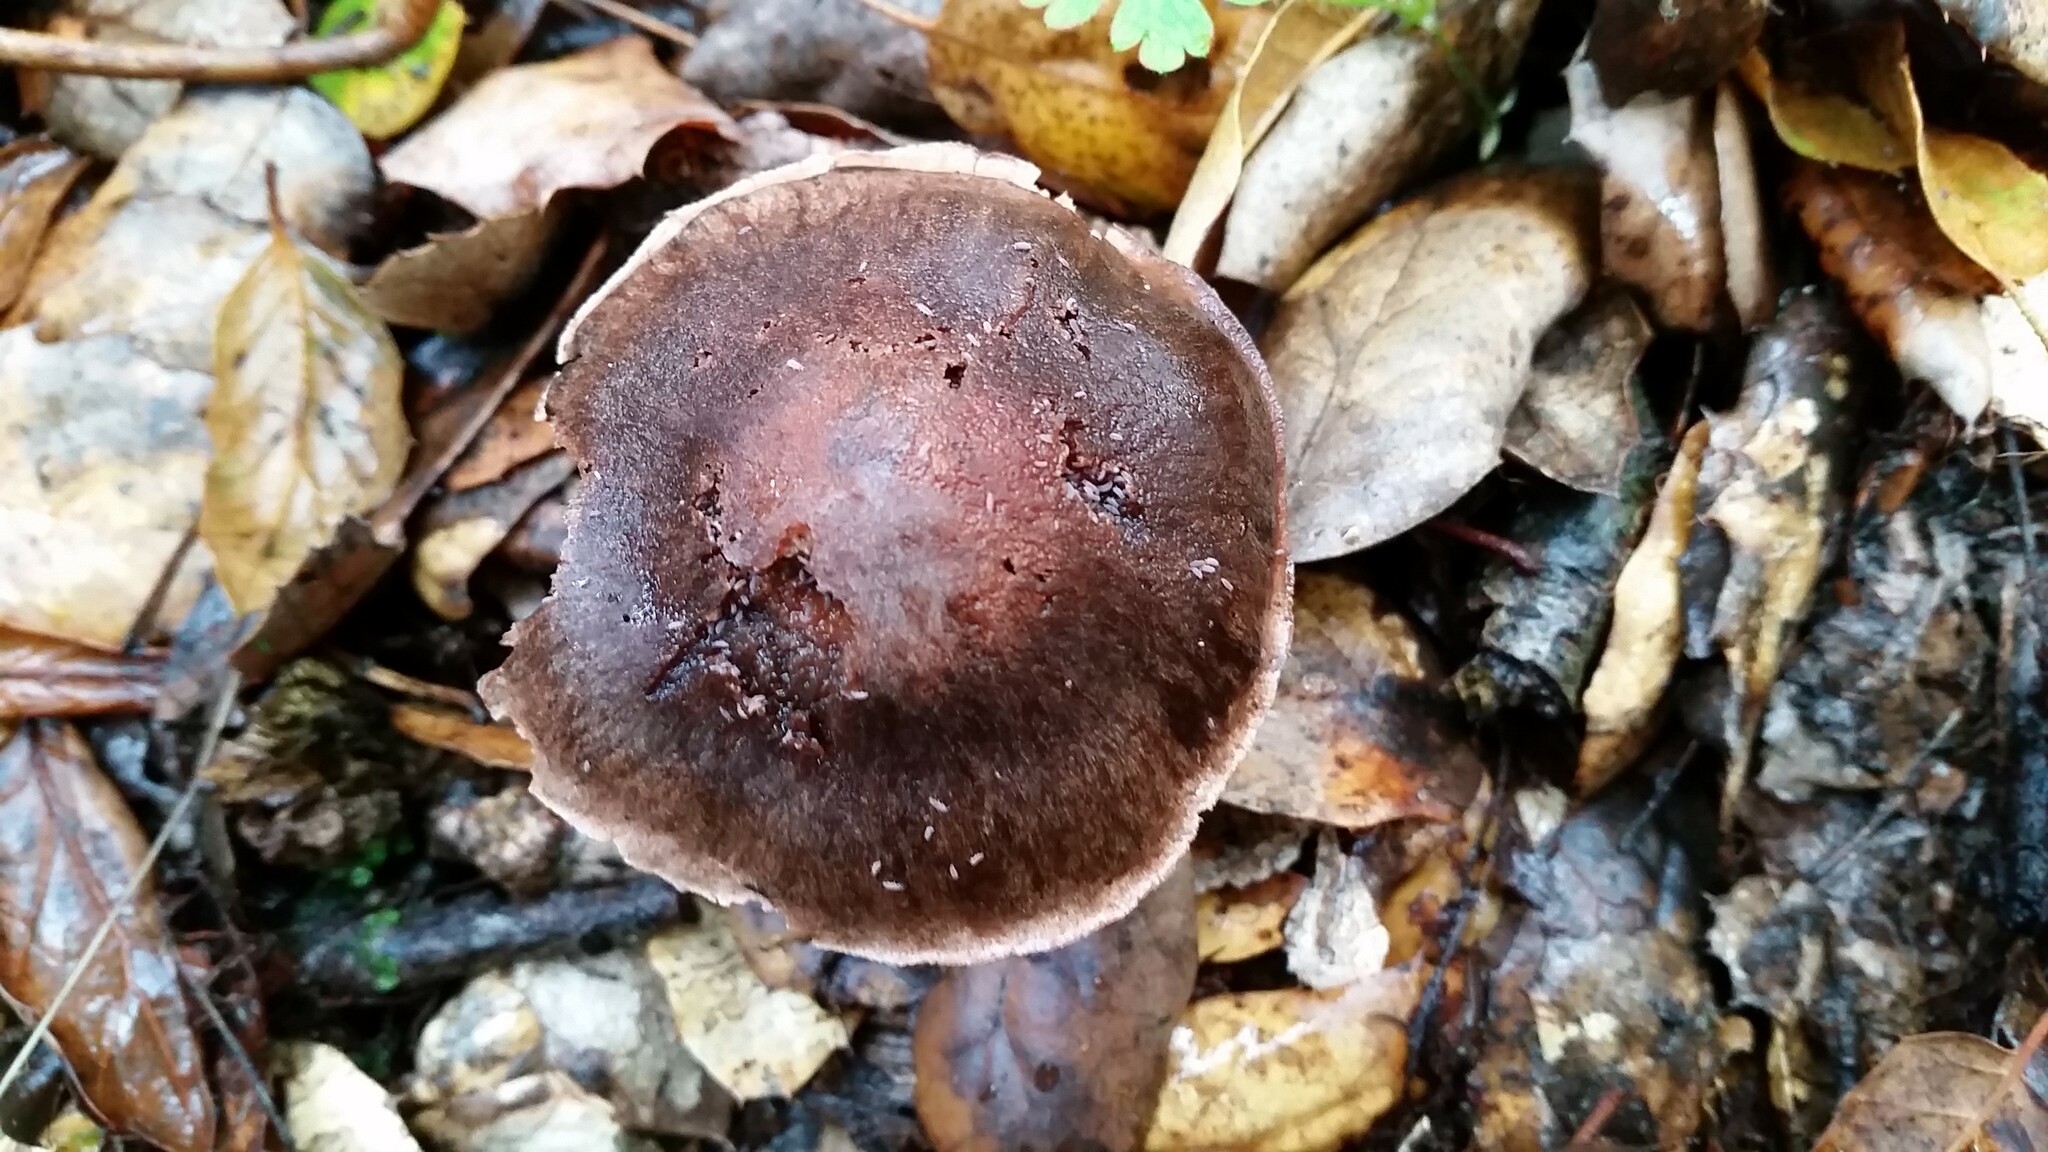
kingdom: Fungi
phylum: Basidiomycota
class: Agaricomycetes
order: Agaricales
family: Cortinariaceae
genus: Cortinarius
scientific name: Cortinarius ohlone
